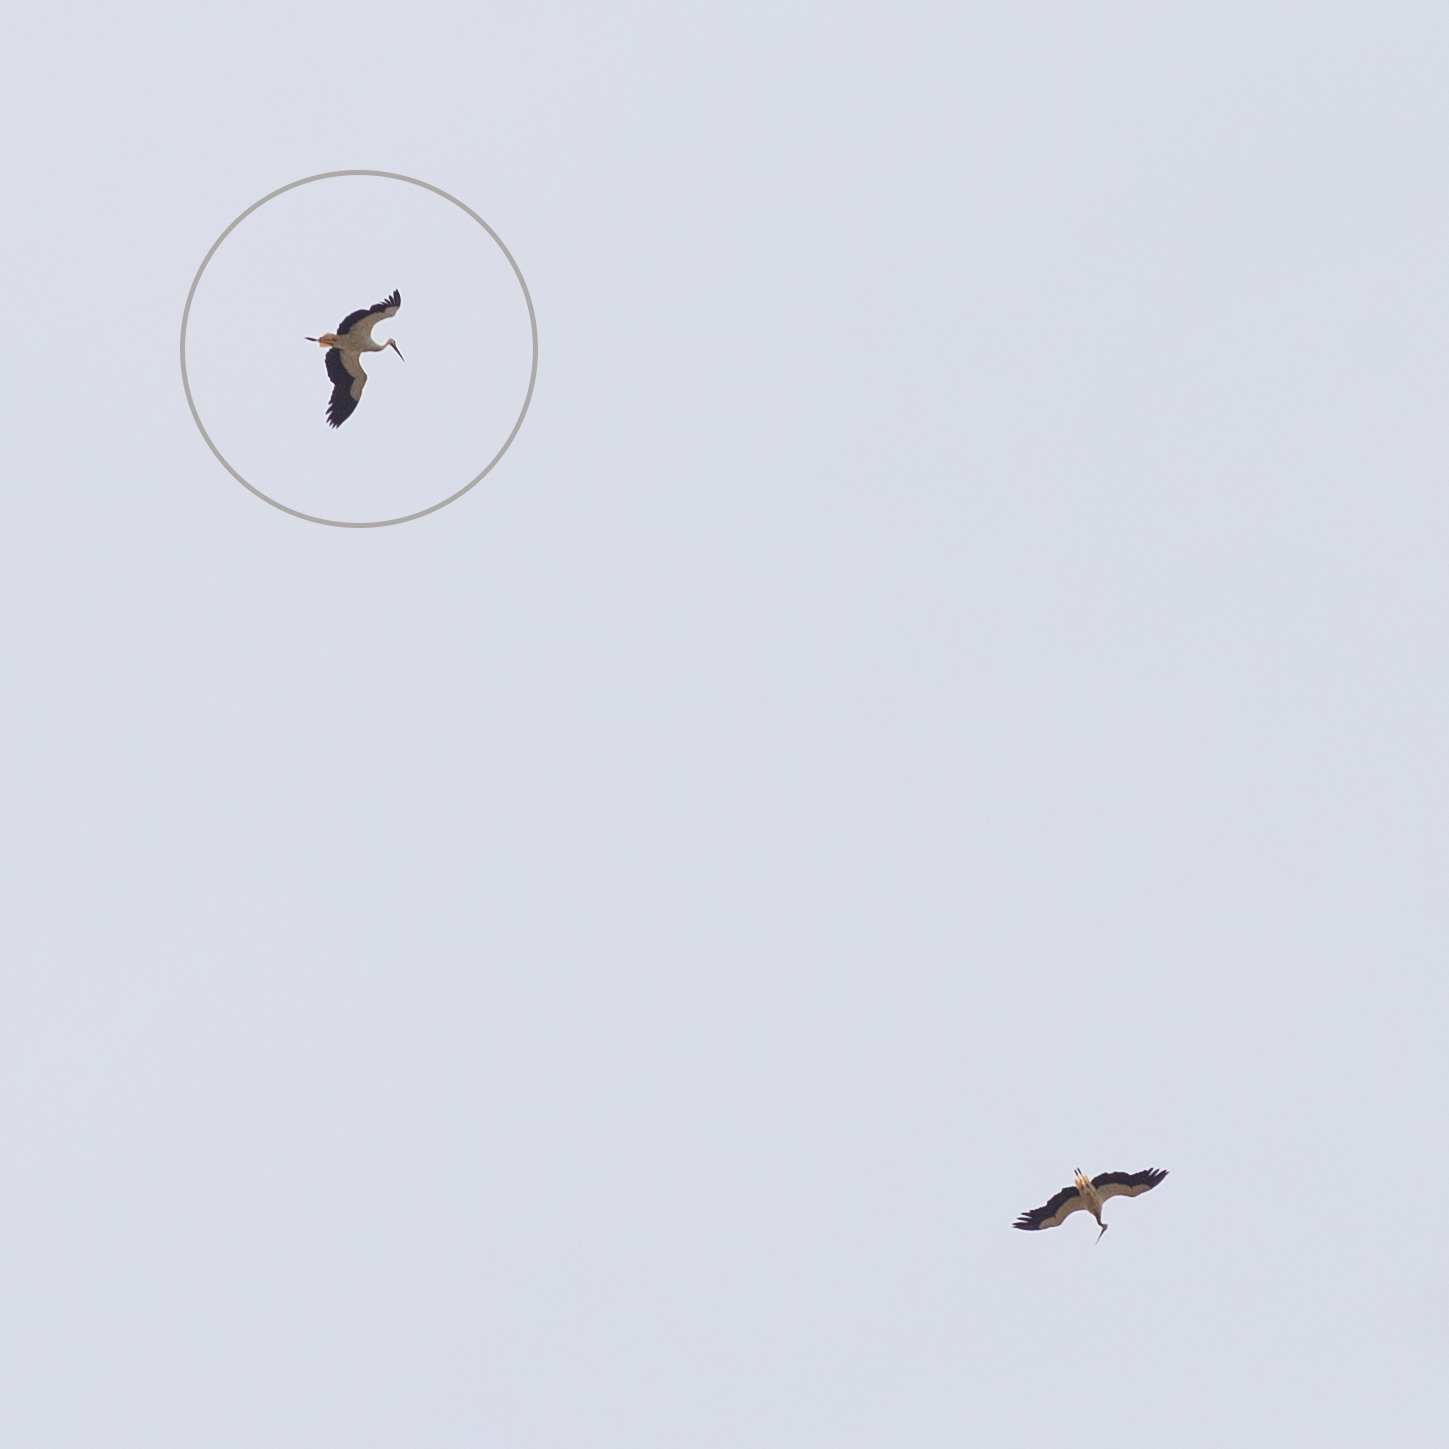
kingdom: Animalia
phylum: Chordata
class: Aves
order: Ciconiiformes
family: Ciconiidae
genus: Ciconia
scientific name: Ciconia ciconia
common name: White stork
